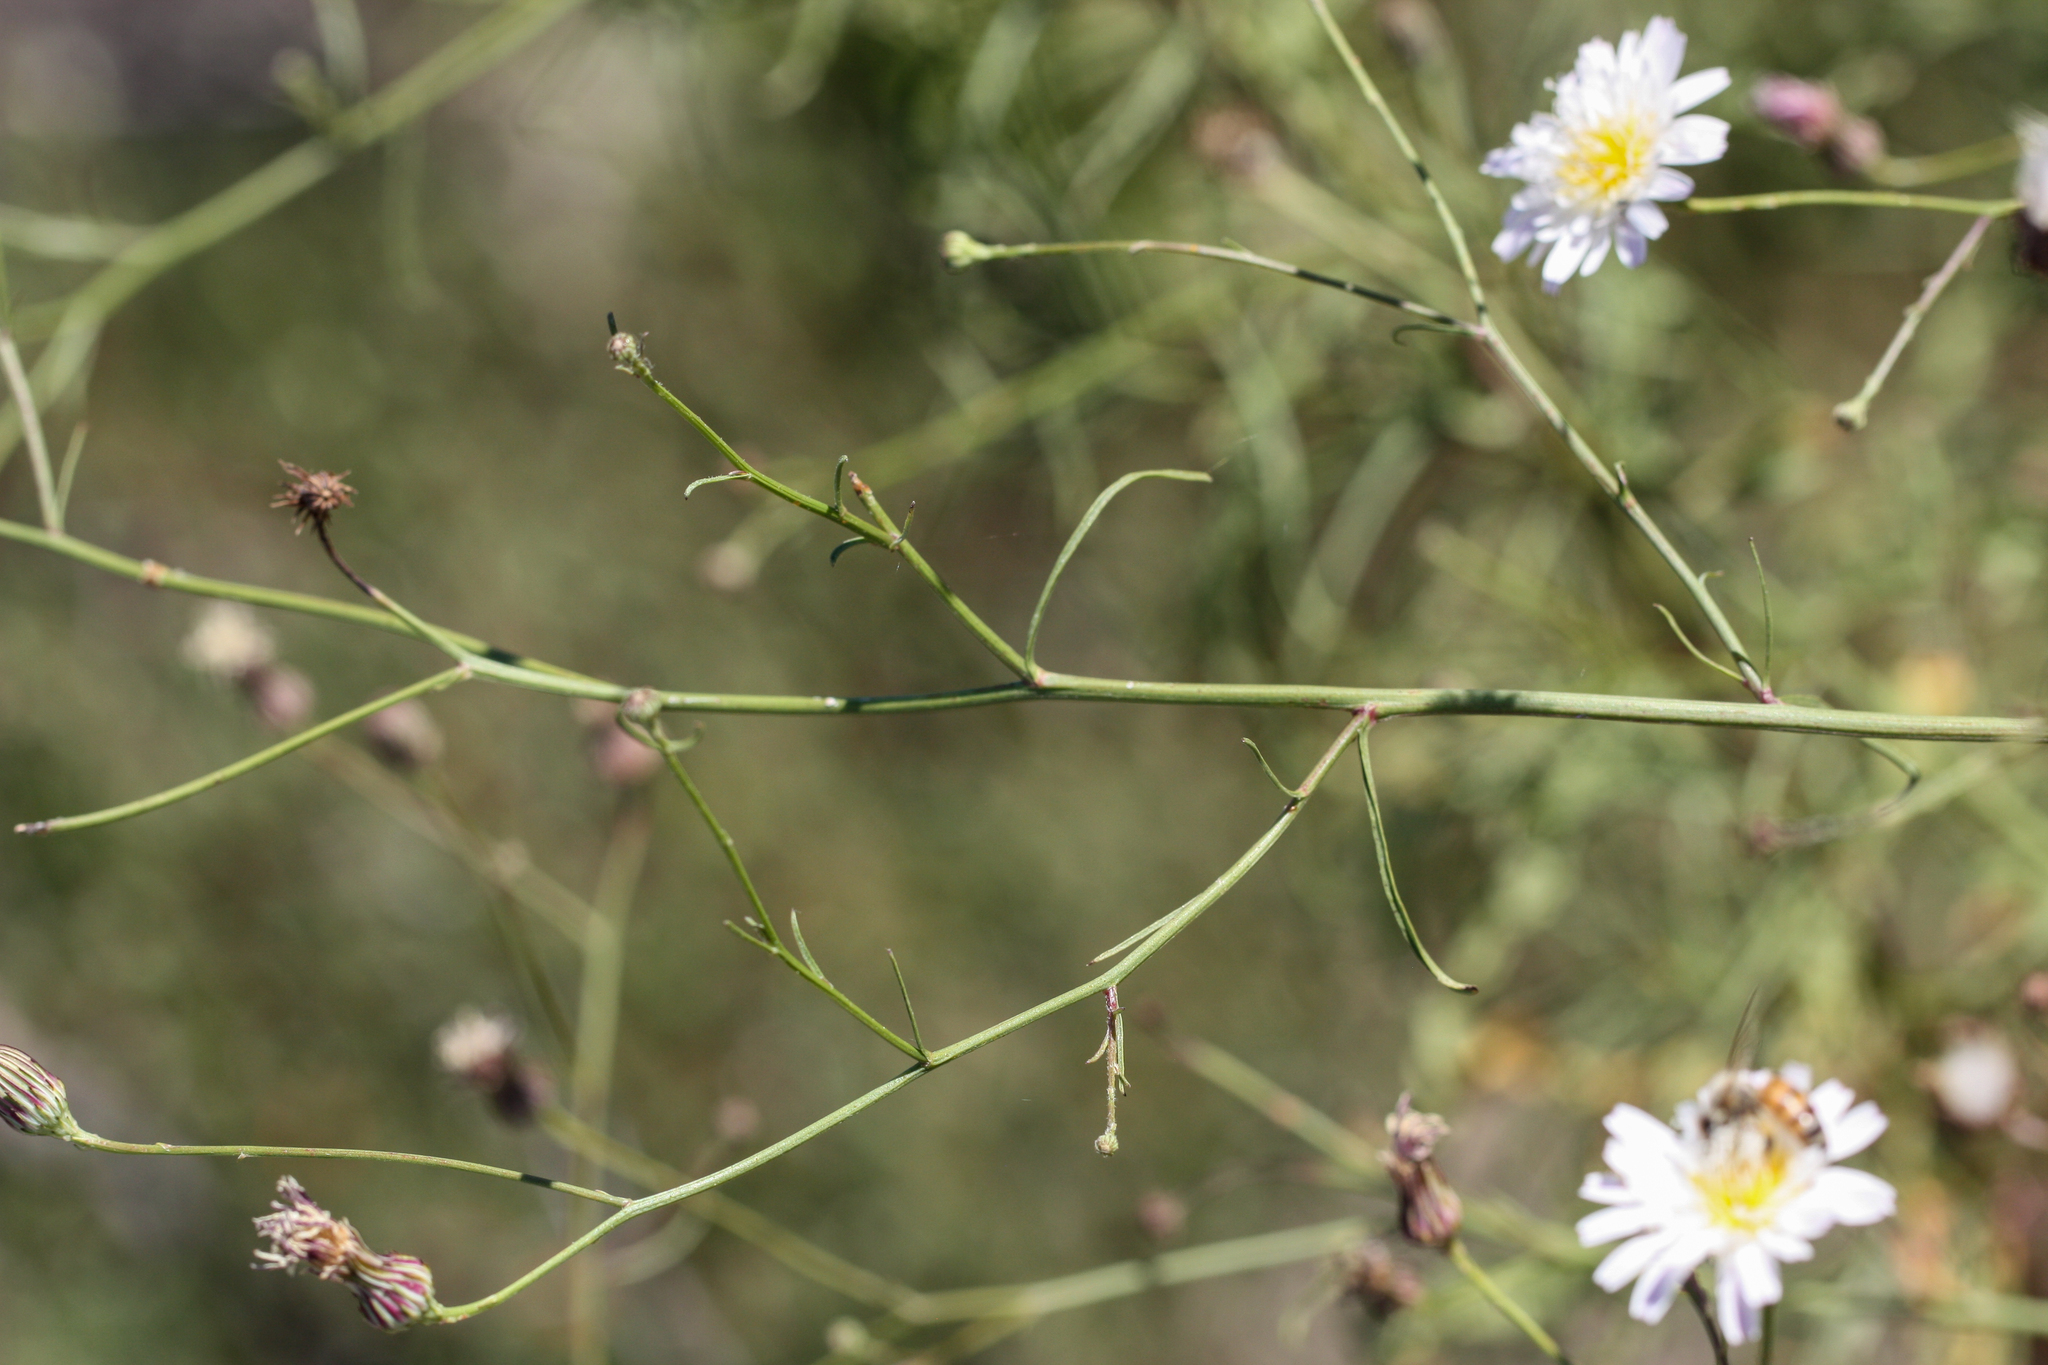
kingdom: Plantae
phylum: Tracheophyta
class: Magnoliopsida
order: Asterales
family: Asteraceae
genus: Malacothrix
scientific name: Malacothrix saxatilis
